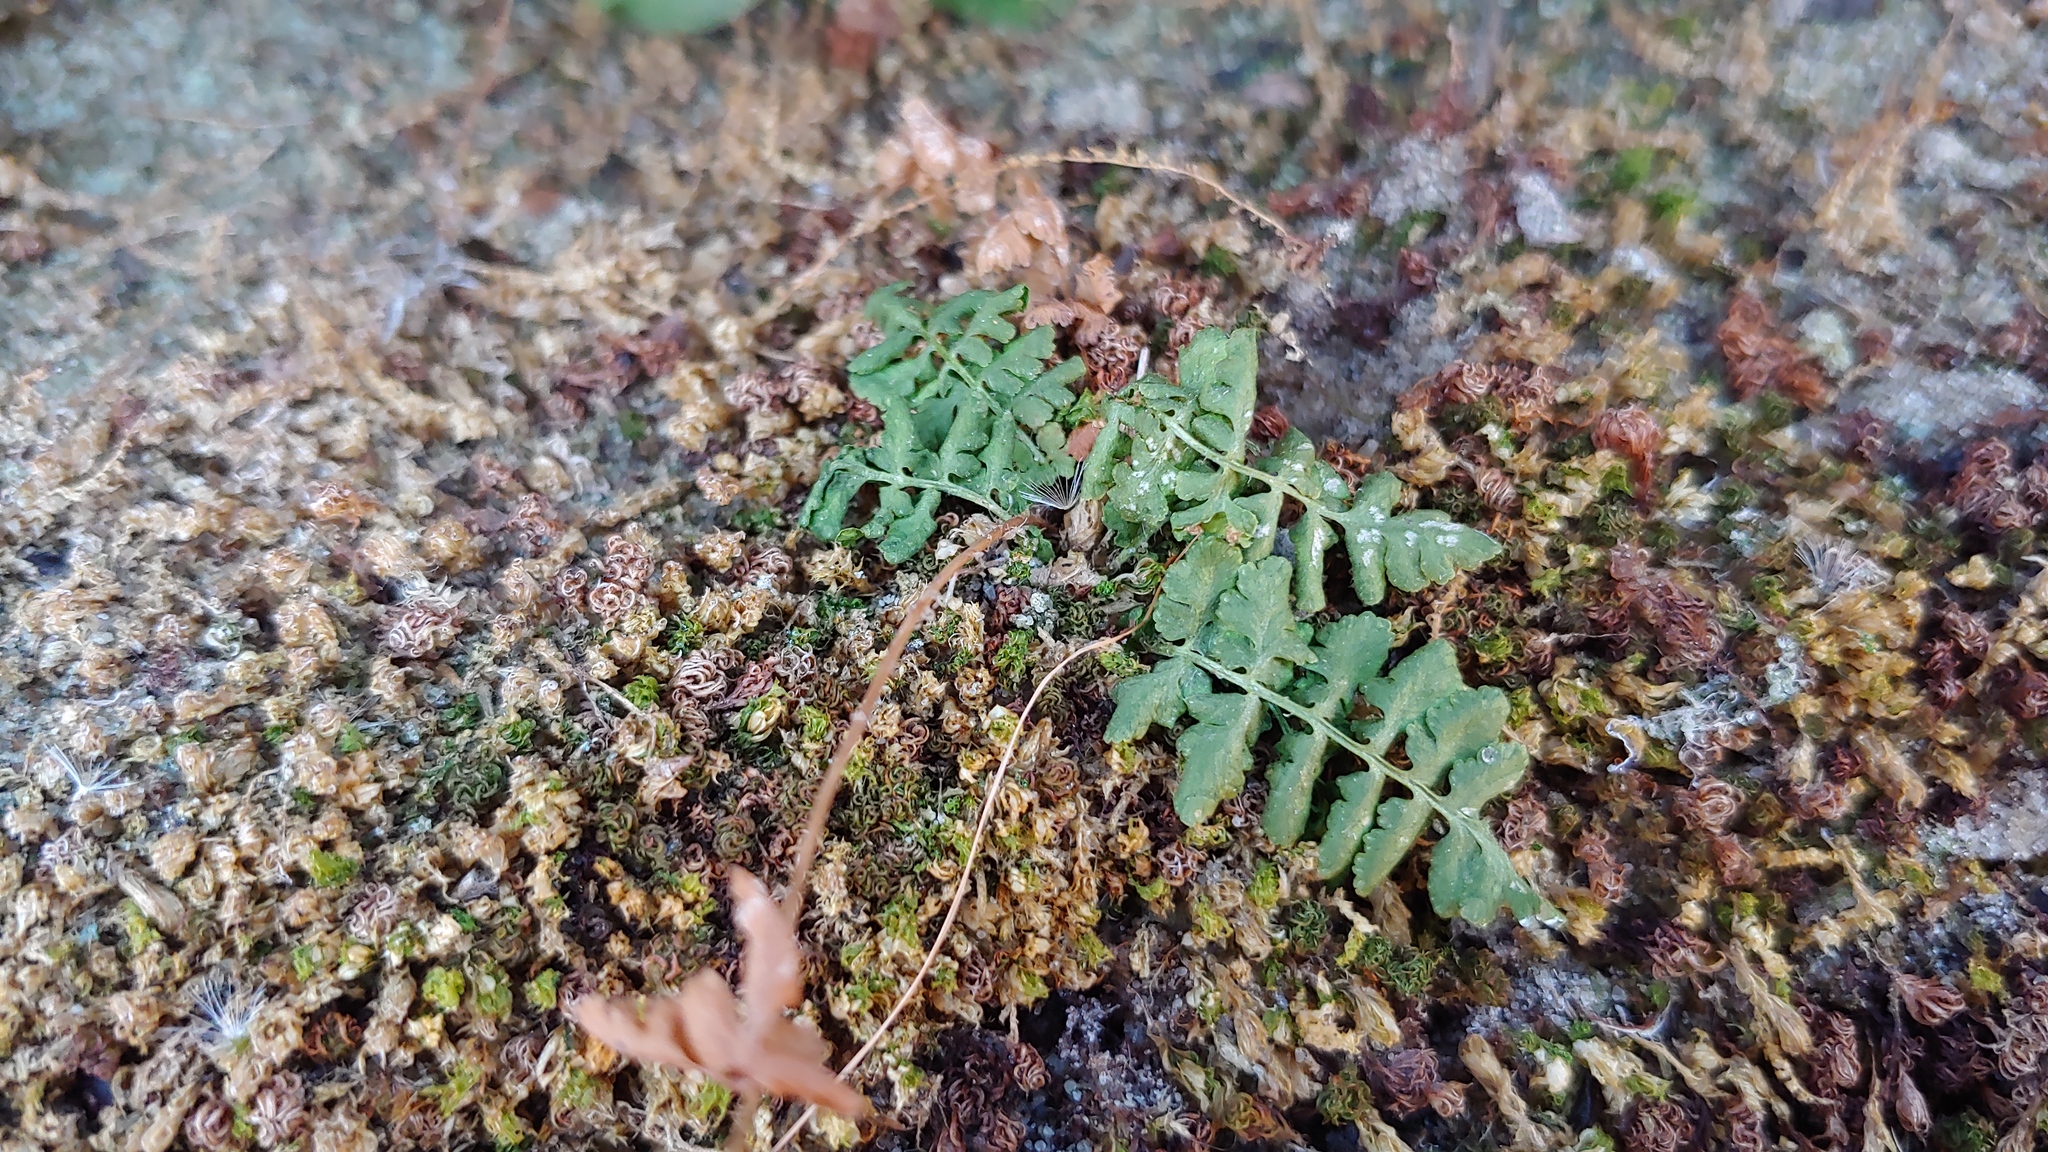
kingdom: Plantae
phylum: Tracheophyta
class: Polypodiopsida
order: Polypodiales
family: Woodsiaceae
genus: Physematium
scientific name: Physematium obtusum
